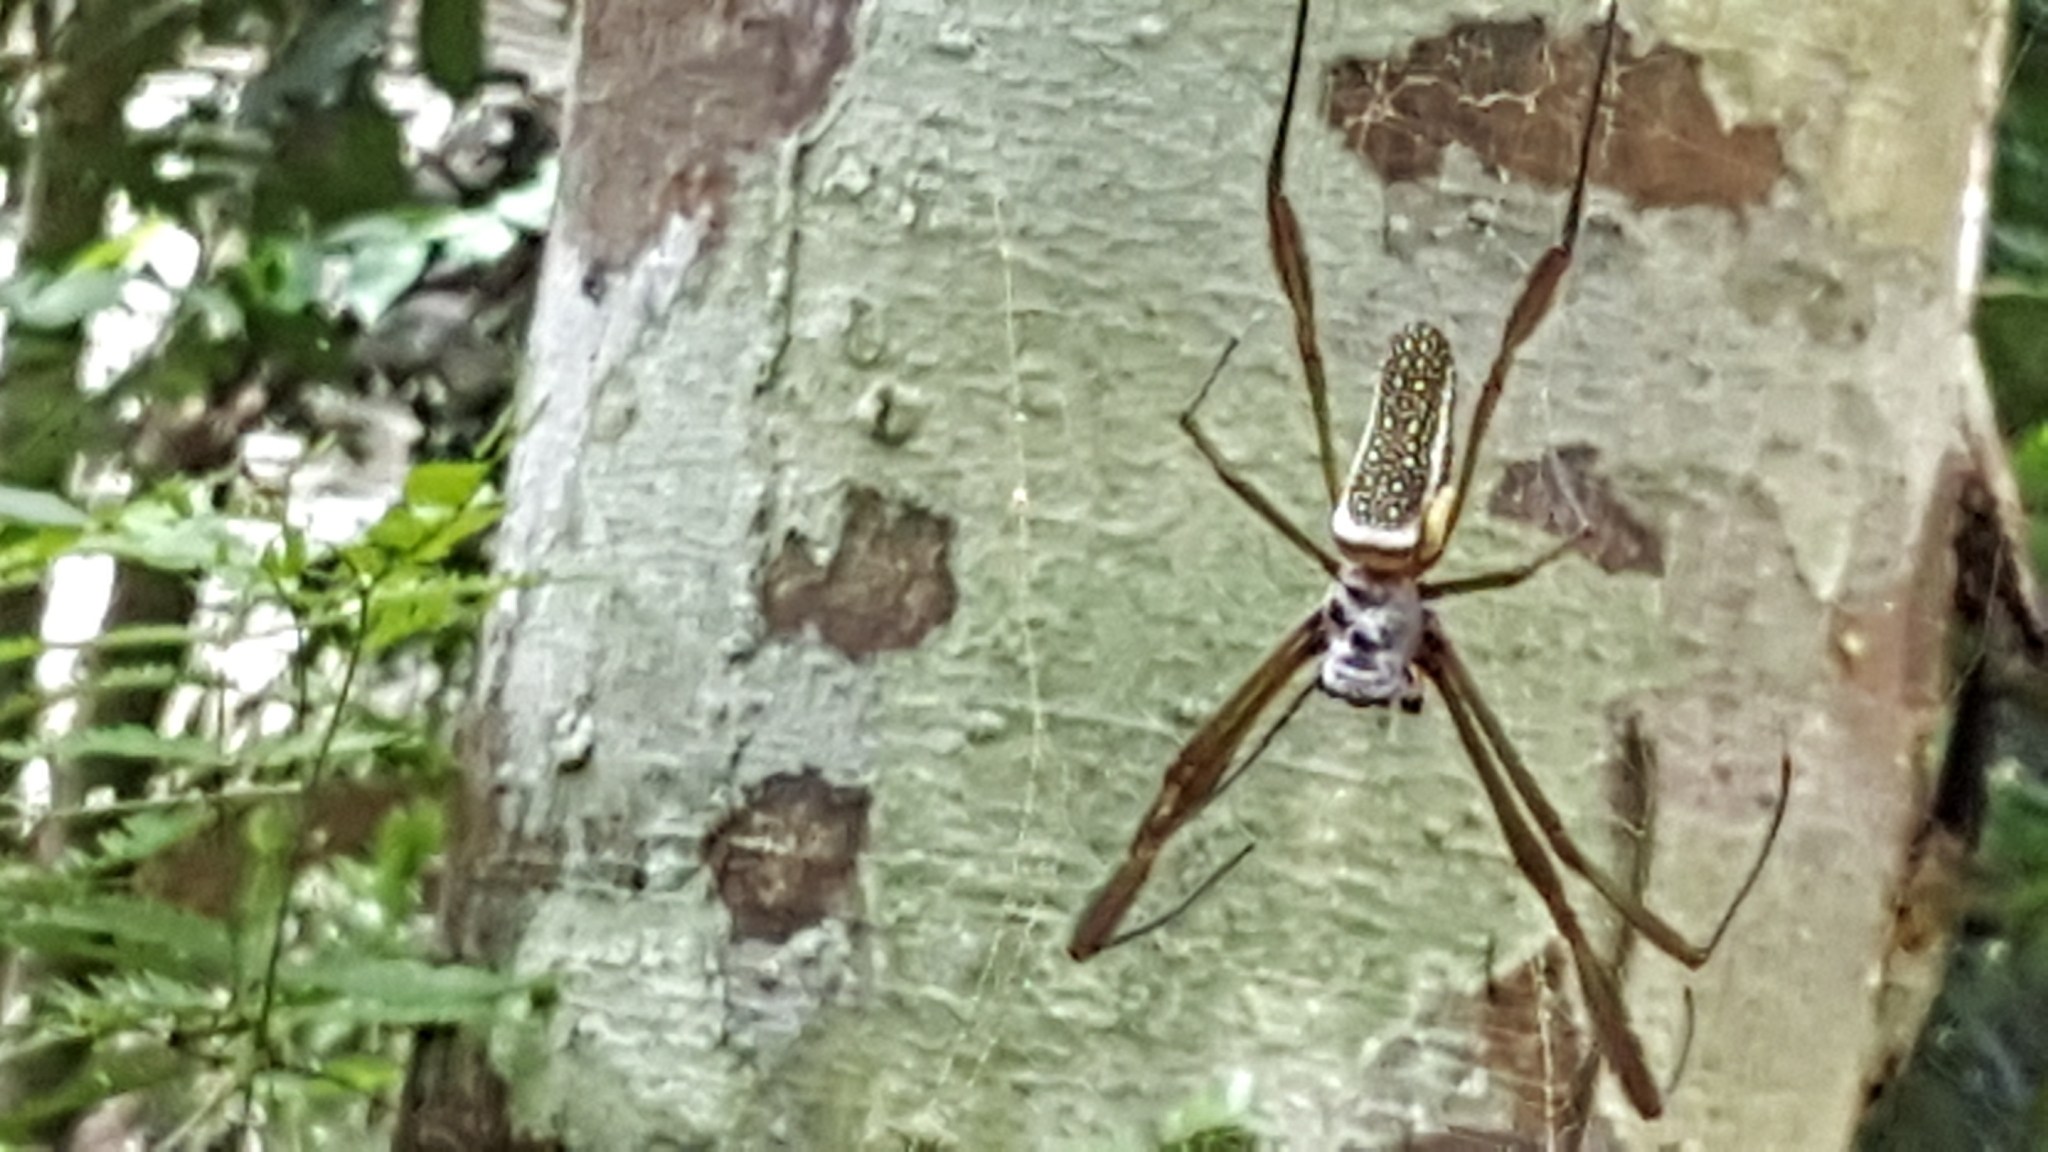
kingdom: Animalia
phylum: Arthropoda
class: Arachnida
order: Araneae
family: Araneidae
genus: Trichonephila
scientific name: Trichonephila clavipes
